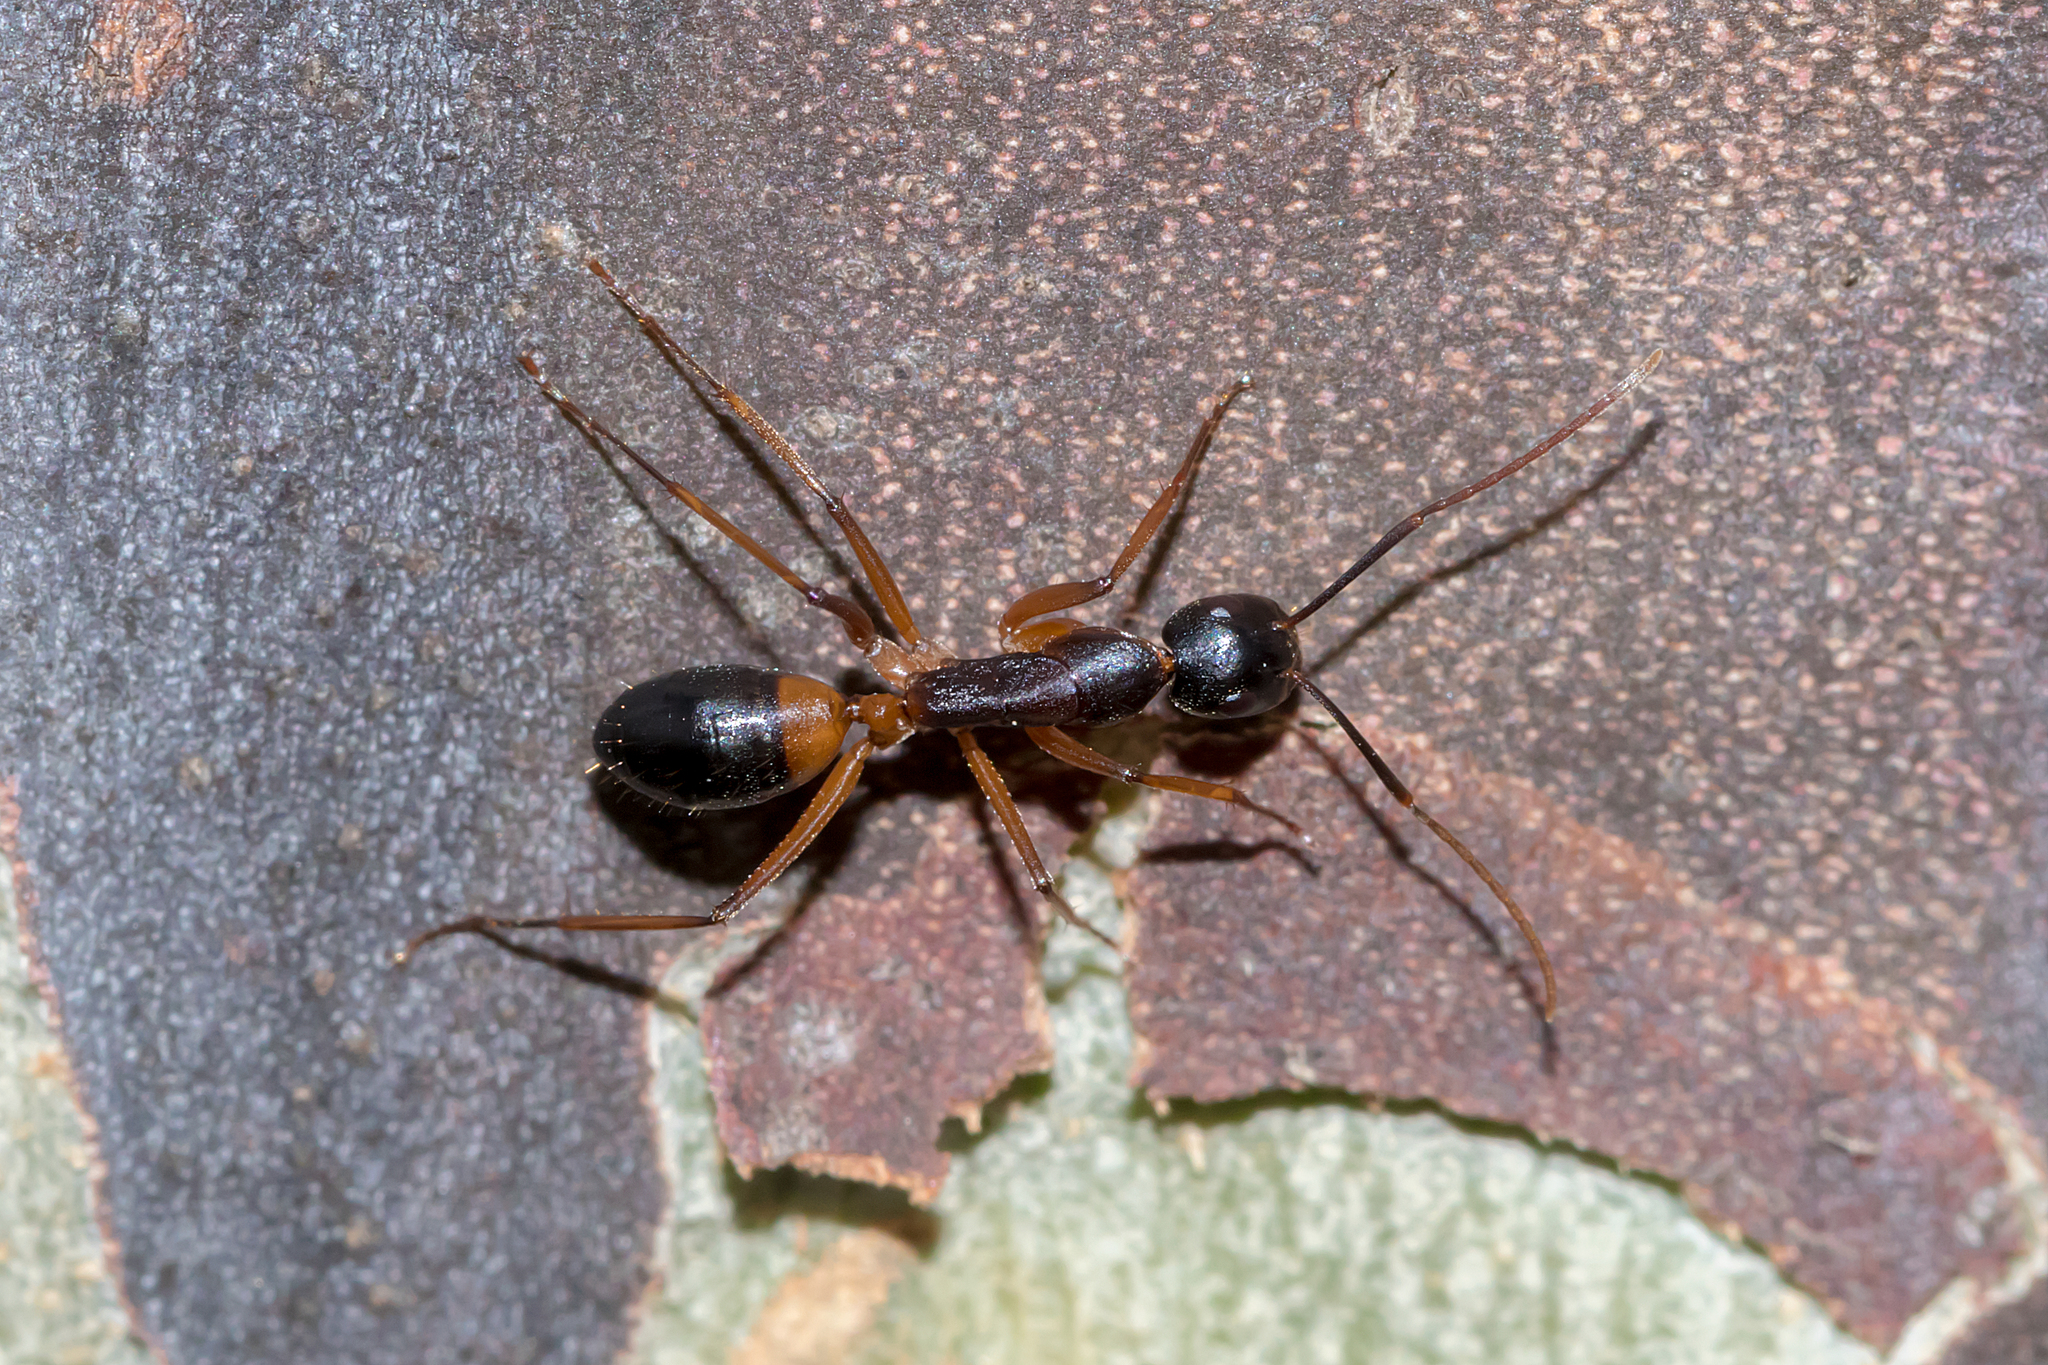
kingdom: Animalia
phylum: Arthropoda
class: Insecta
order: Hymenoptera
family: Formicidae
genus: Camponotus
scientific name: Camponotus consobrinus
